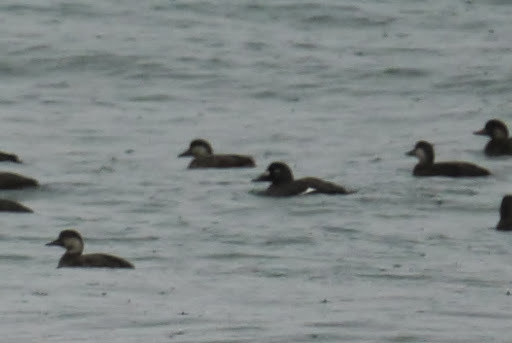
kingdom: Animalia
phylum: Chordata
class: Aves
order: Anseriformes
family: Anatidae
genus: Melanitta
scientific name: Melanitta deglandi
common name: White-winged scoter
